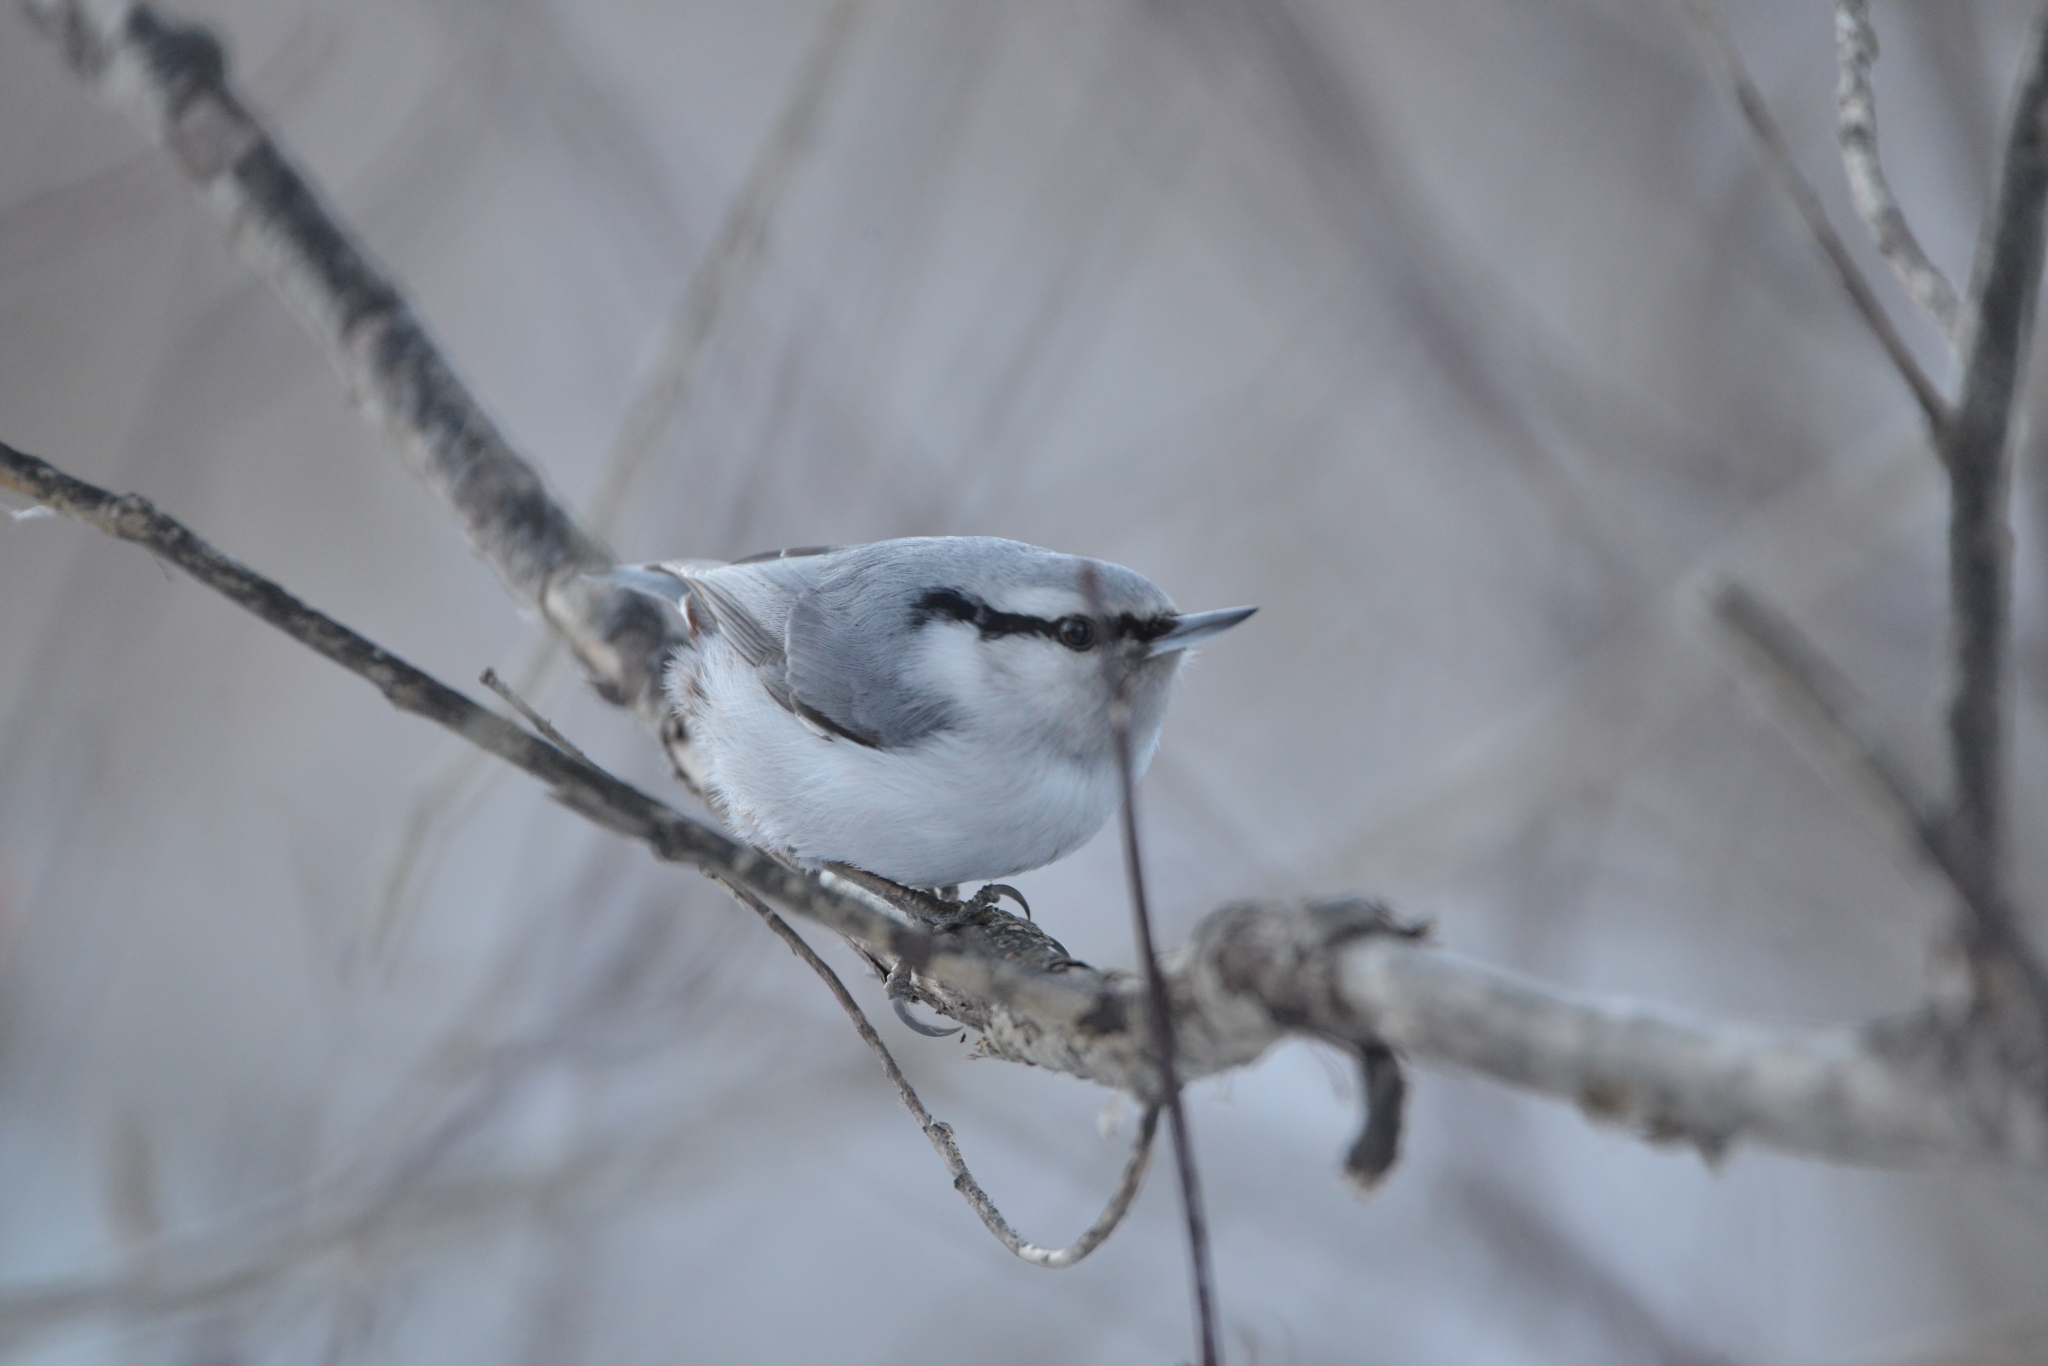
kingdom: Animalia
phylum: Chordata
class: Aves
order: Passeriformes
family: Sittidae
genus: Sitta
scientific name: Sitta europaea
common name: Eurasian nuthatch
